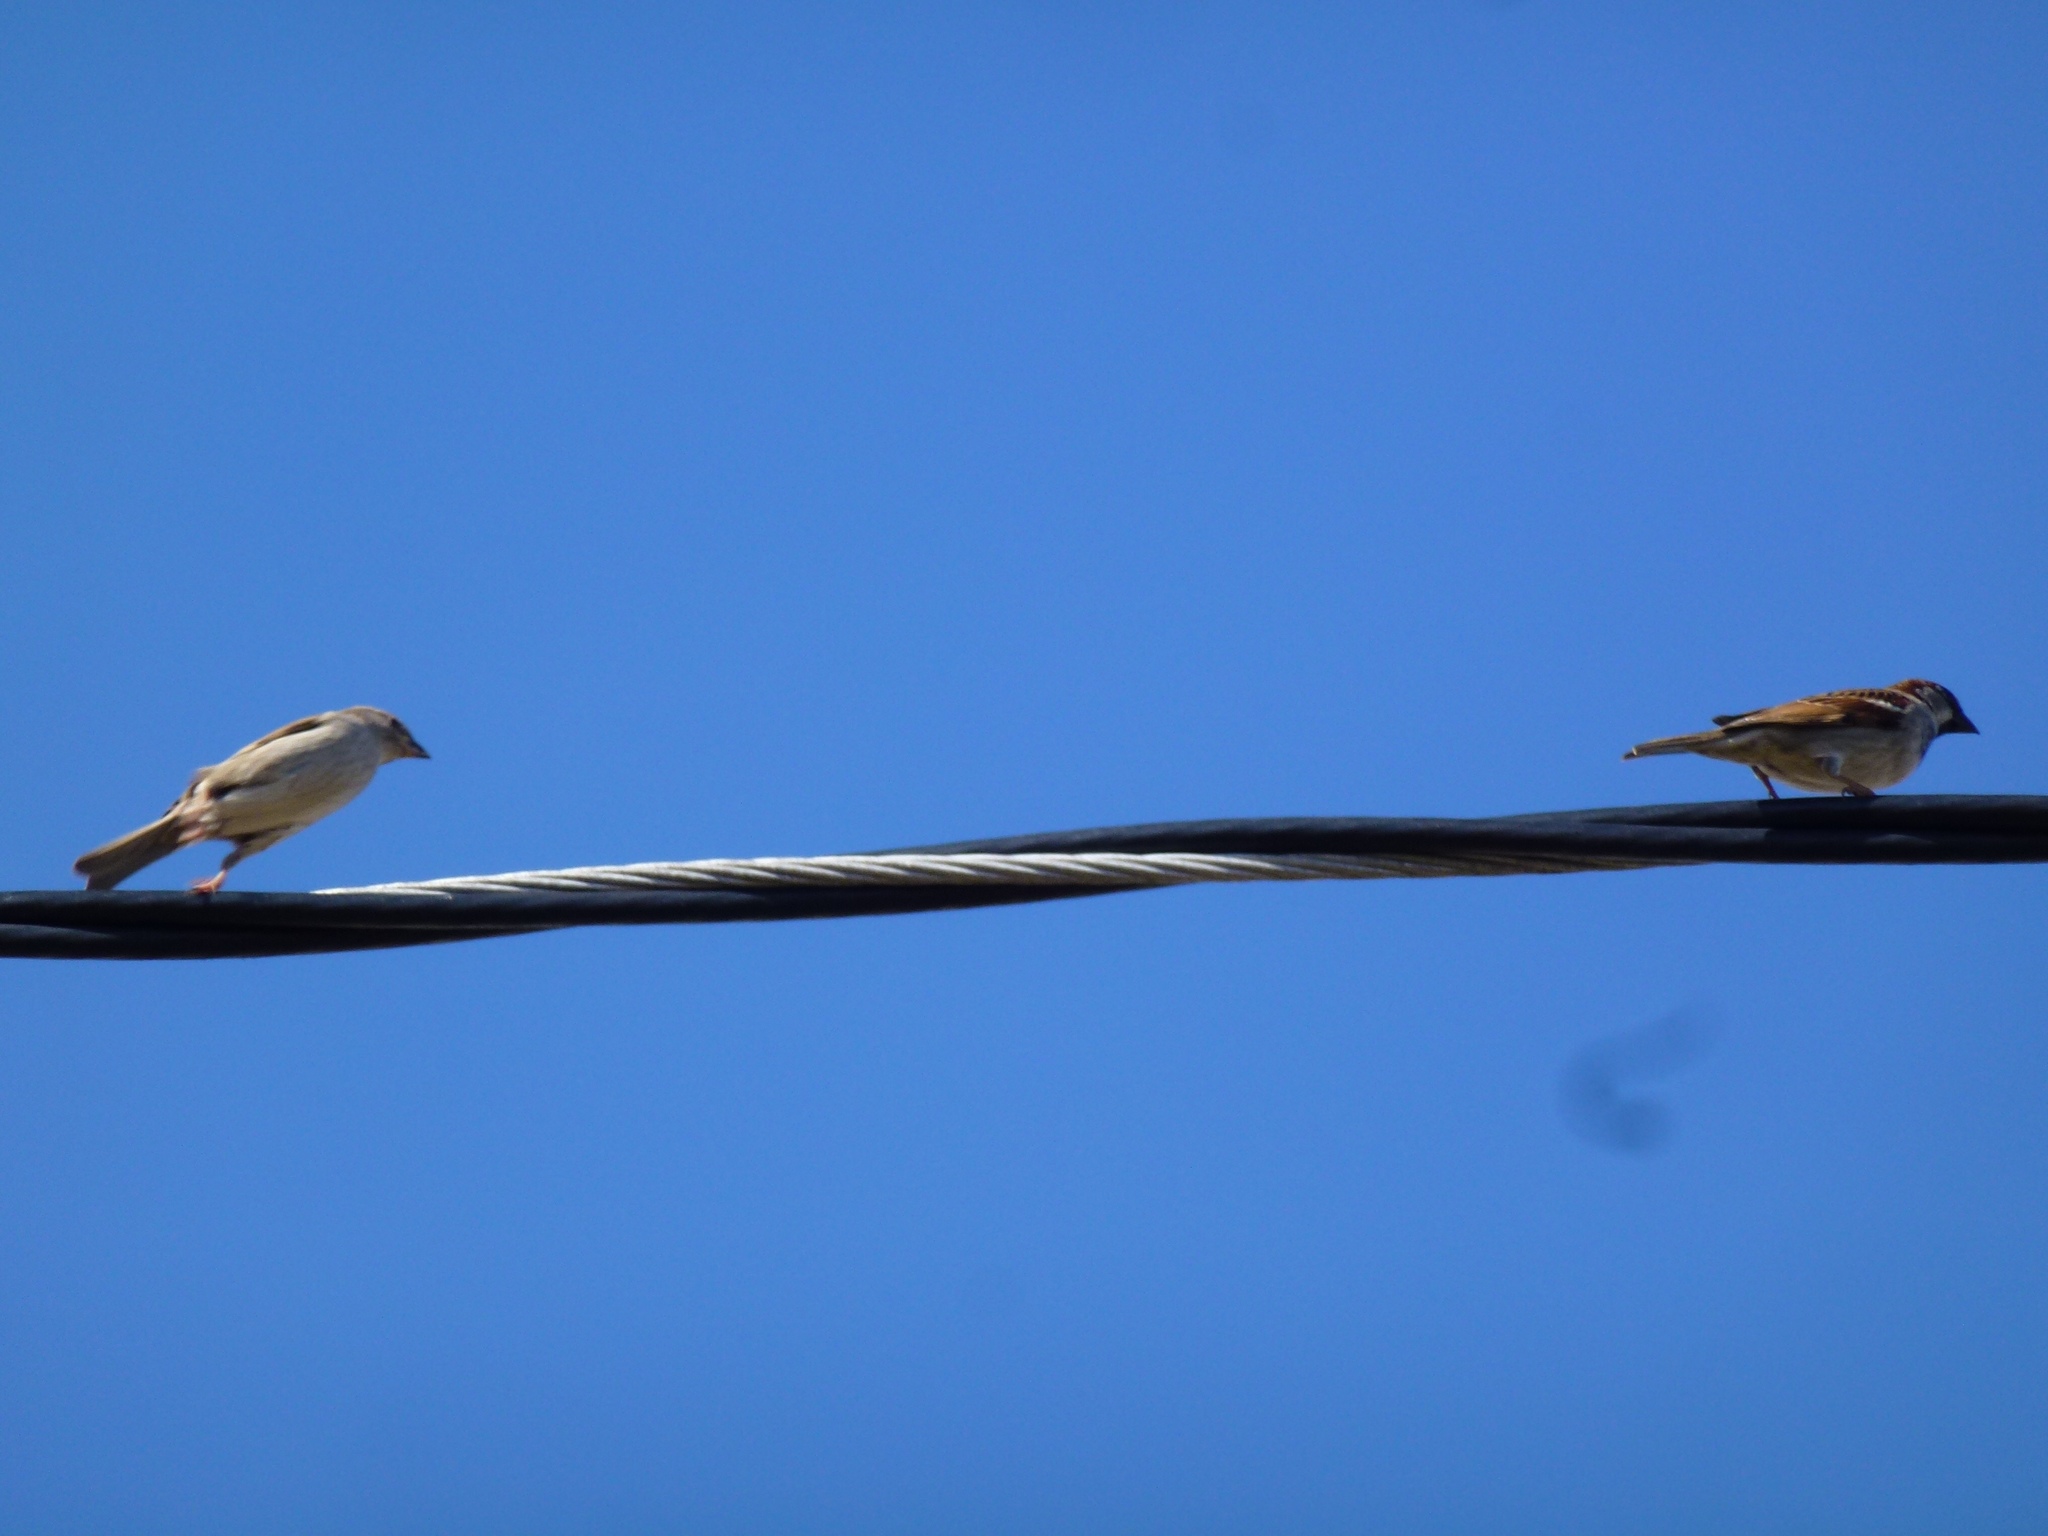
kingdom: Animalia
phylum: Chordata
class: Aves
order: Passeriformes
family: Passeridae
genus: Passer
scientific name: Passer domesticus
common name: House sparrow
